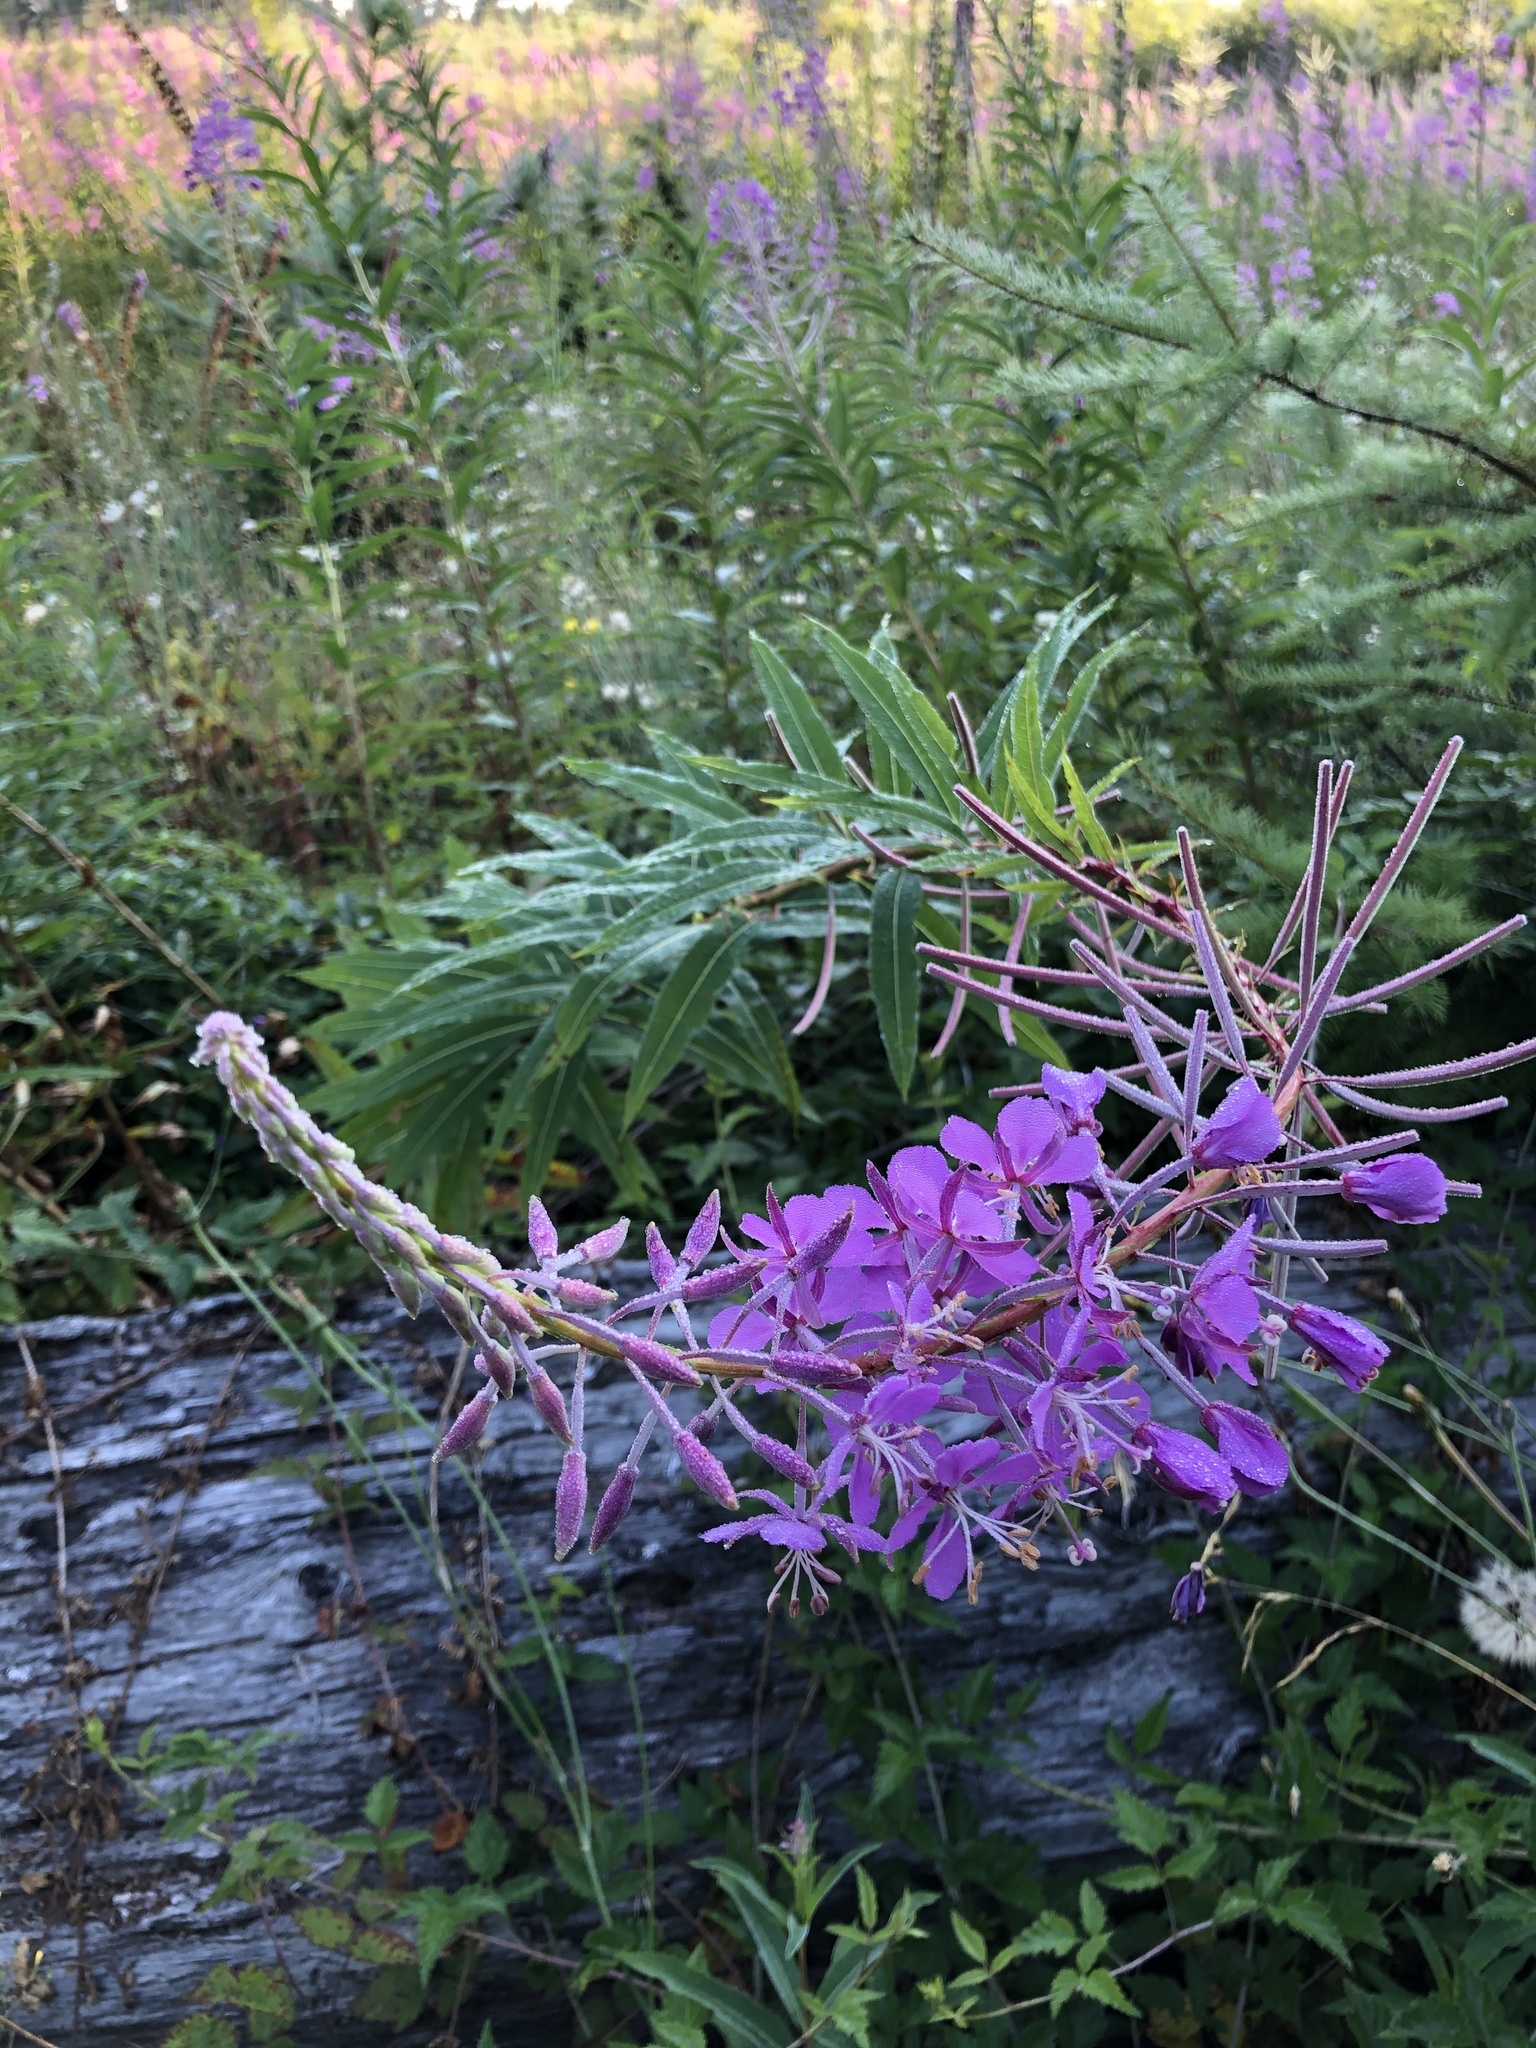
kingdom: Plantae
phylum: Tracheophyta
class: Magnoliopsida
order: Myrtales
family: Onagraceae
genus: Chamaenerion
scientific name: Chamaenerion angustifolium
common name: Fireweed
